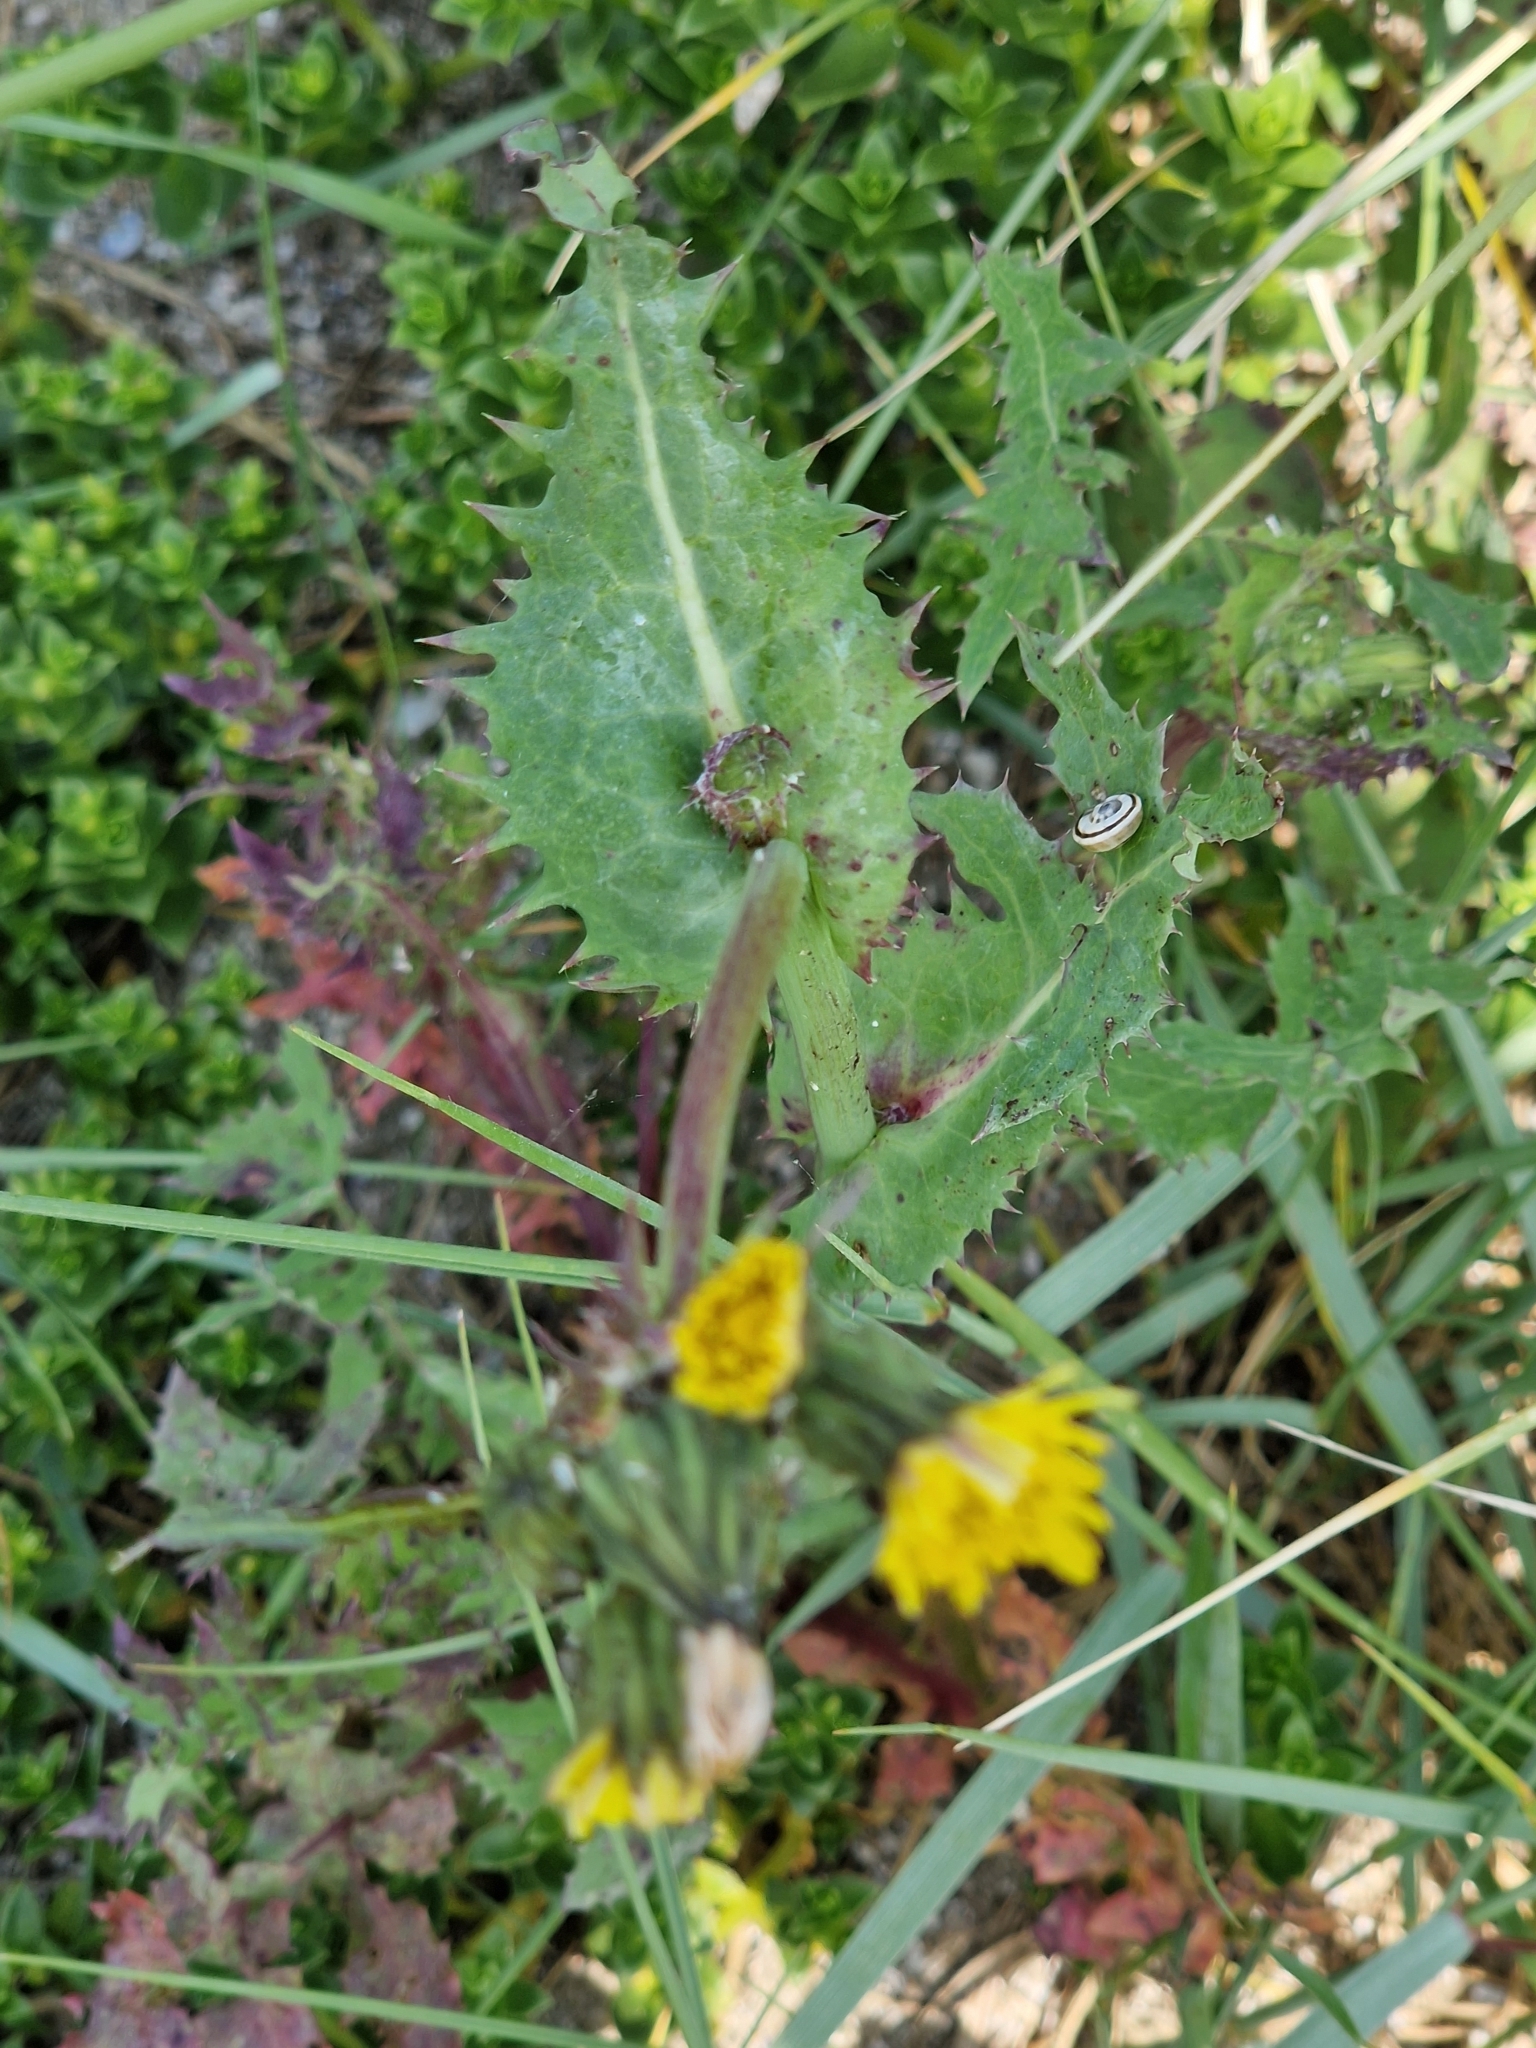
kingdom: Plantae
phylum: Tracheophyta
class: Magnoliopsida
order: Asterales
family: Asteraceae
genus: Sonchus
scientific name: Sonchus asper
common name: Prickly sow-thistle
